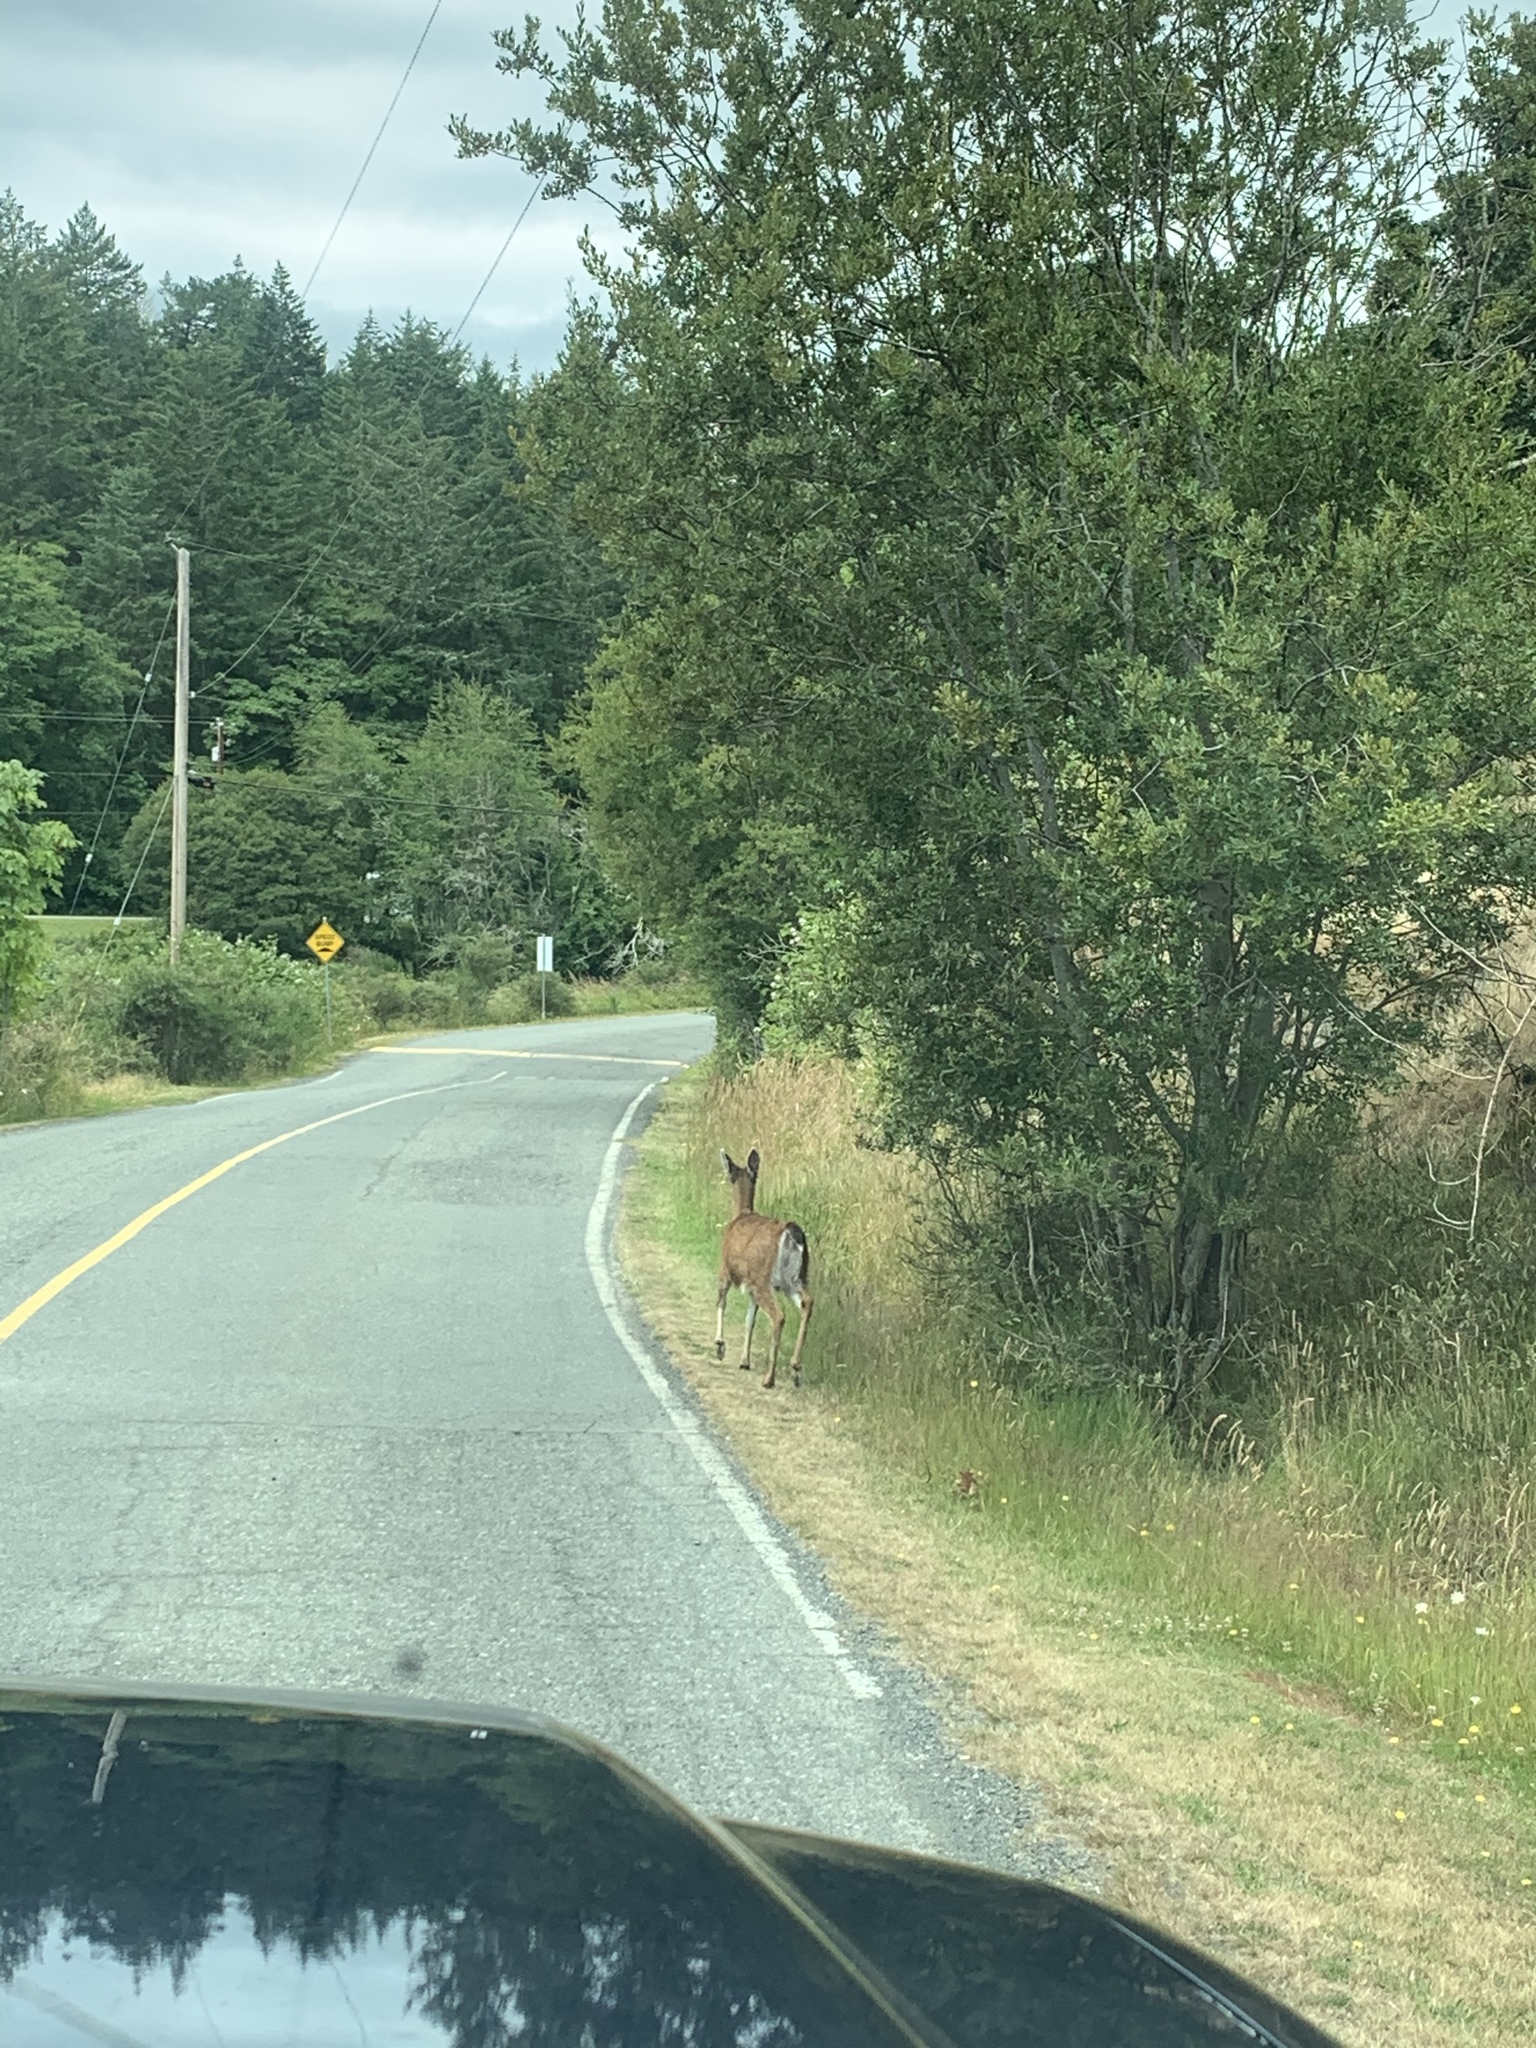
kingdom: Animalia
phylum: Chordata
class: Mammalia
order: Artiodactyla
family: Cervidae
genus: Odocoileus
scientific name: Odocoileus hemionus
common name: Mule deer
